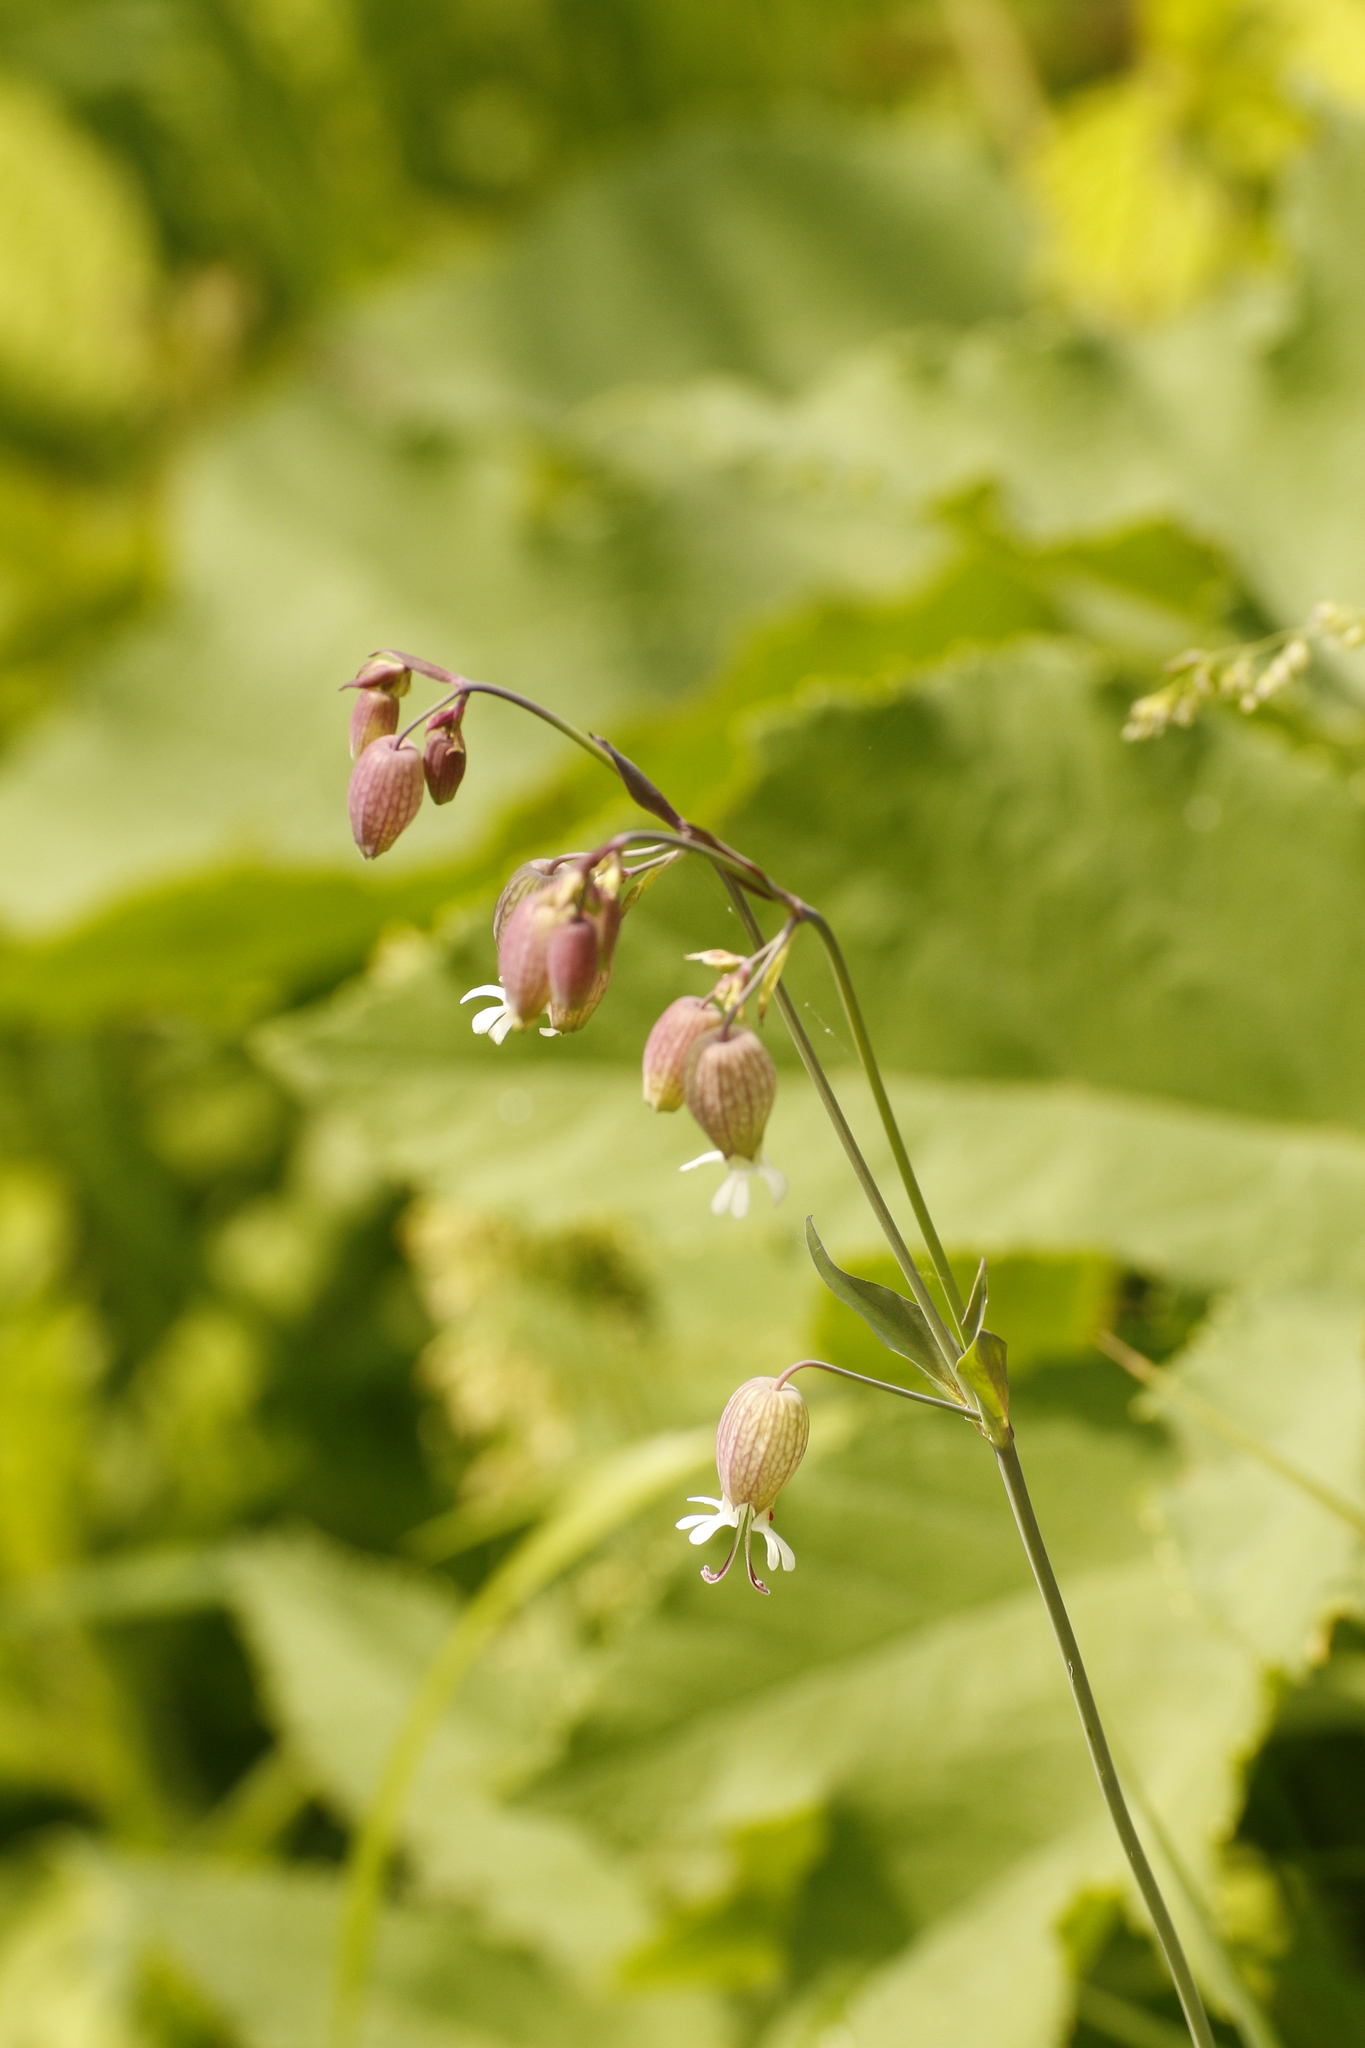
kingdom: Plantae
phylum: Tracheophyta
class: Magnoliopsida
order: Caryophyllales
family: Caryophyllaceae
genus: Silene
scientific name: Silene vulgaris
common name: Bladder campion
